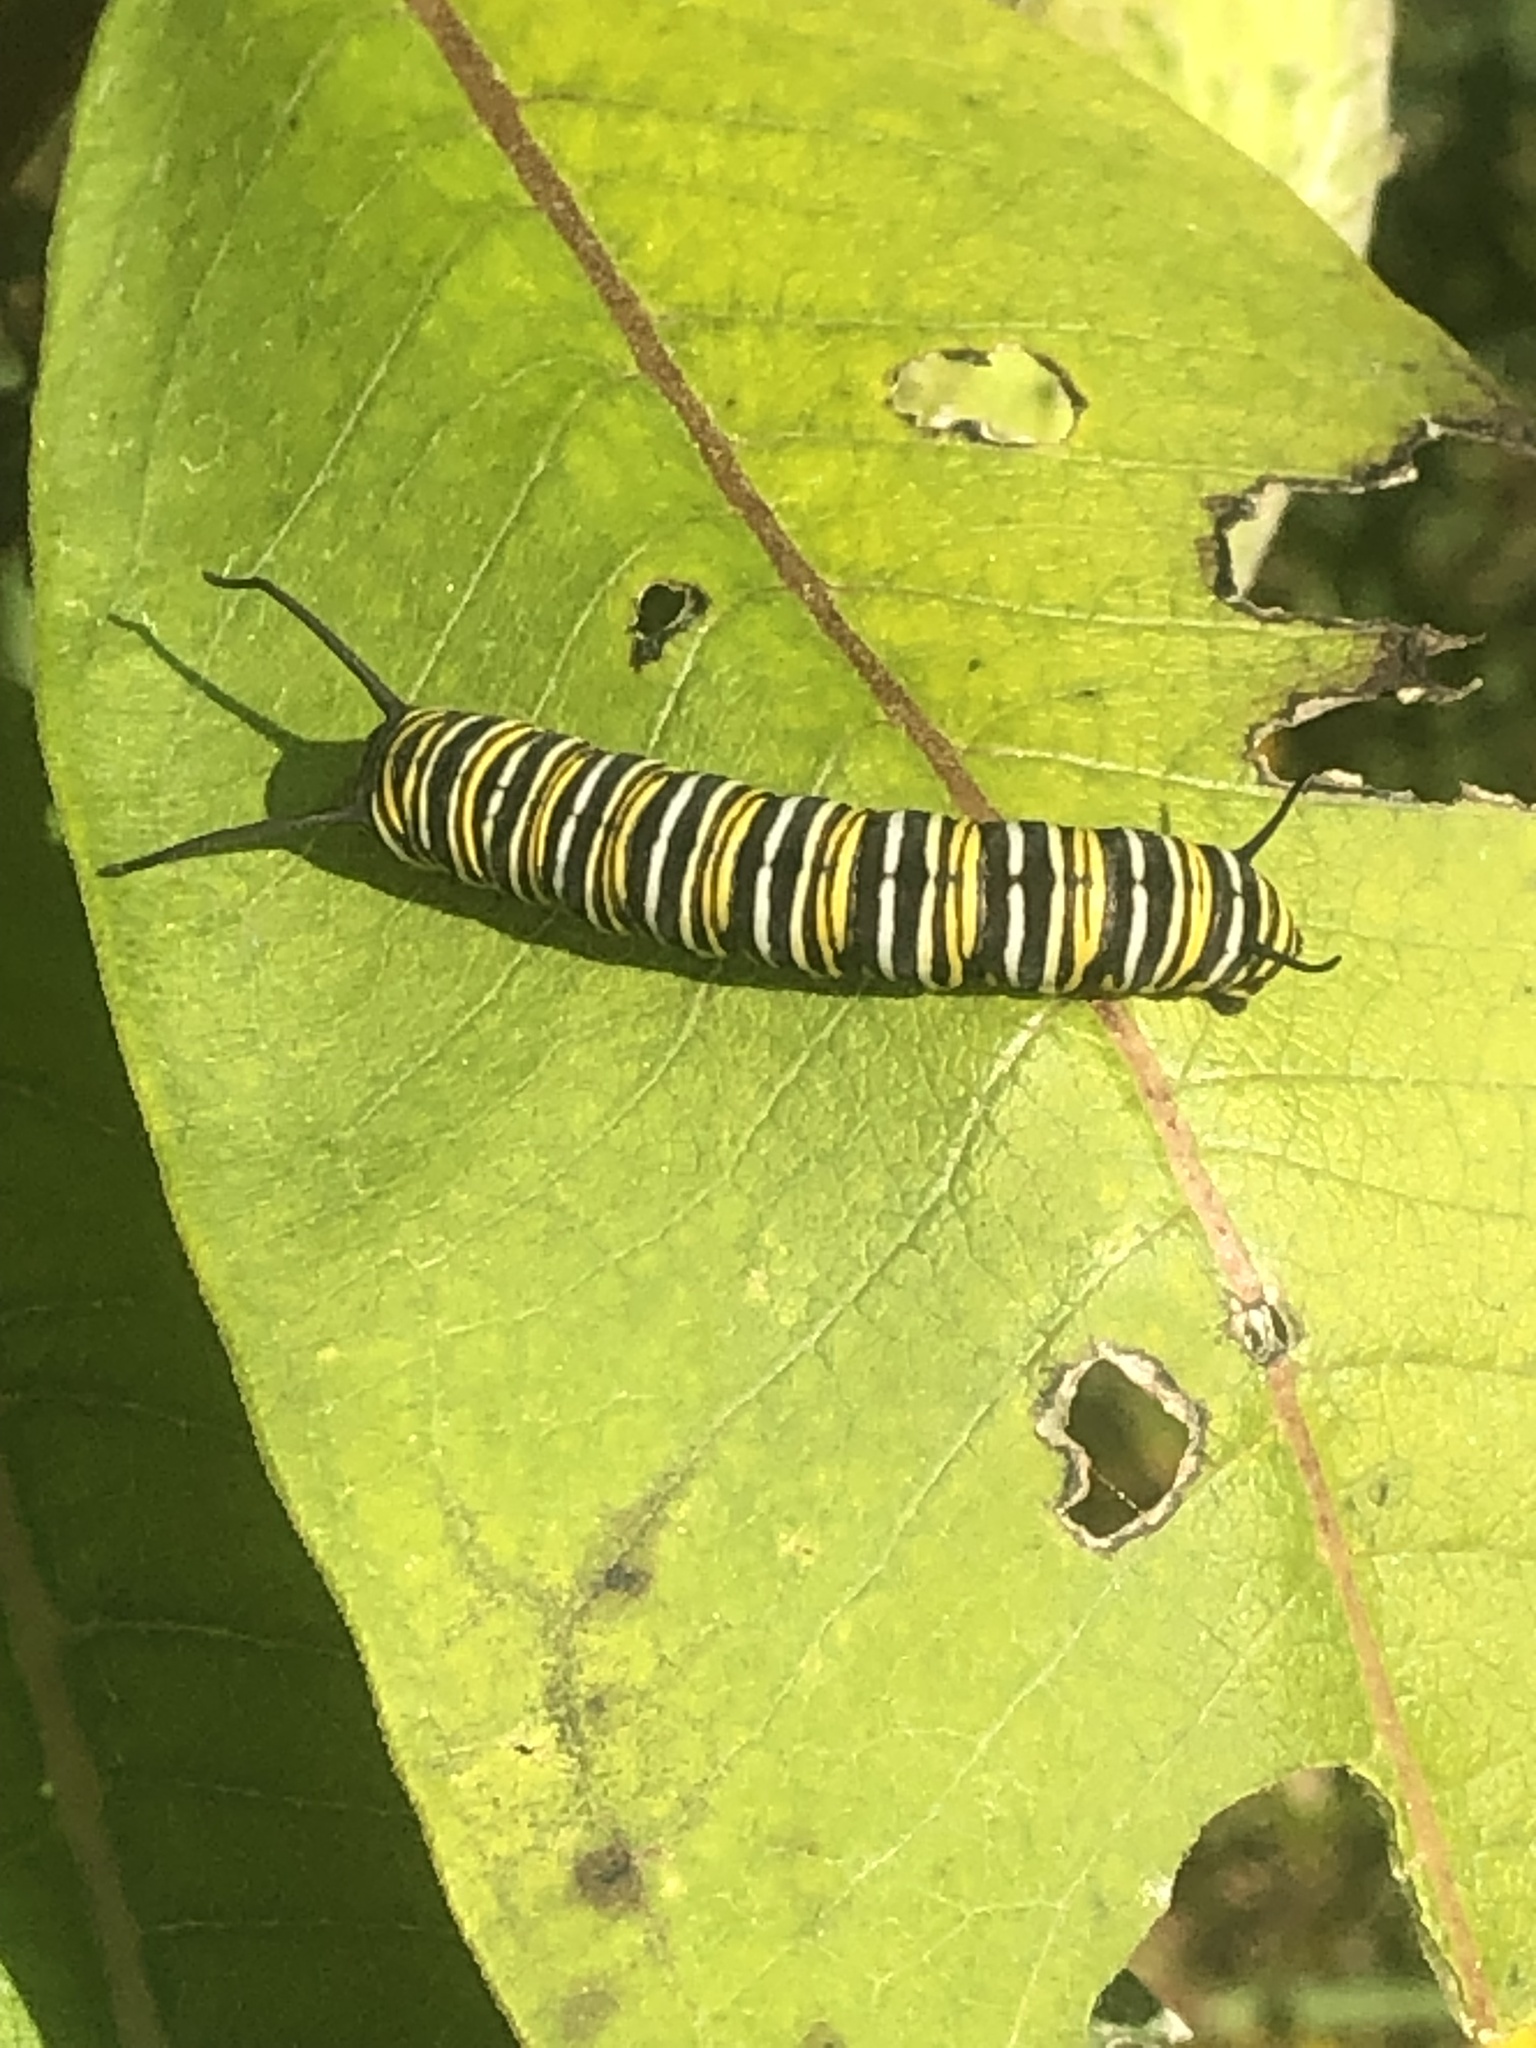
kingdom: Animalia
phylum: Arthropoda
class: Insecta
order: Lepidoptera
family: Nymphalidae
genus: Danaus
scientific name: Danaus plexippus
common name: Monarch
